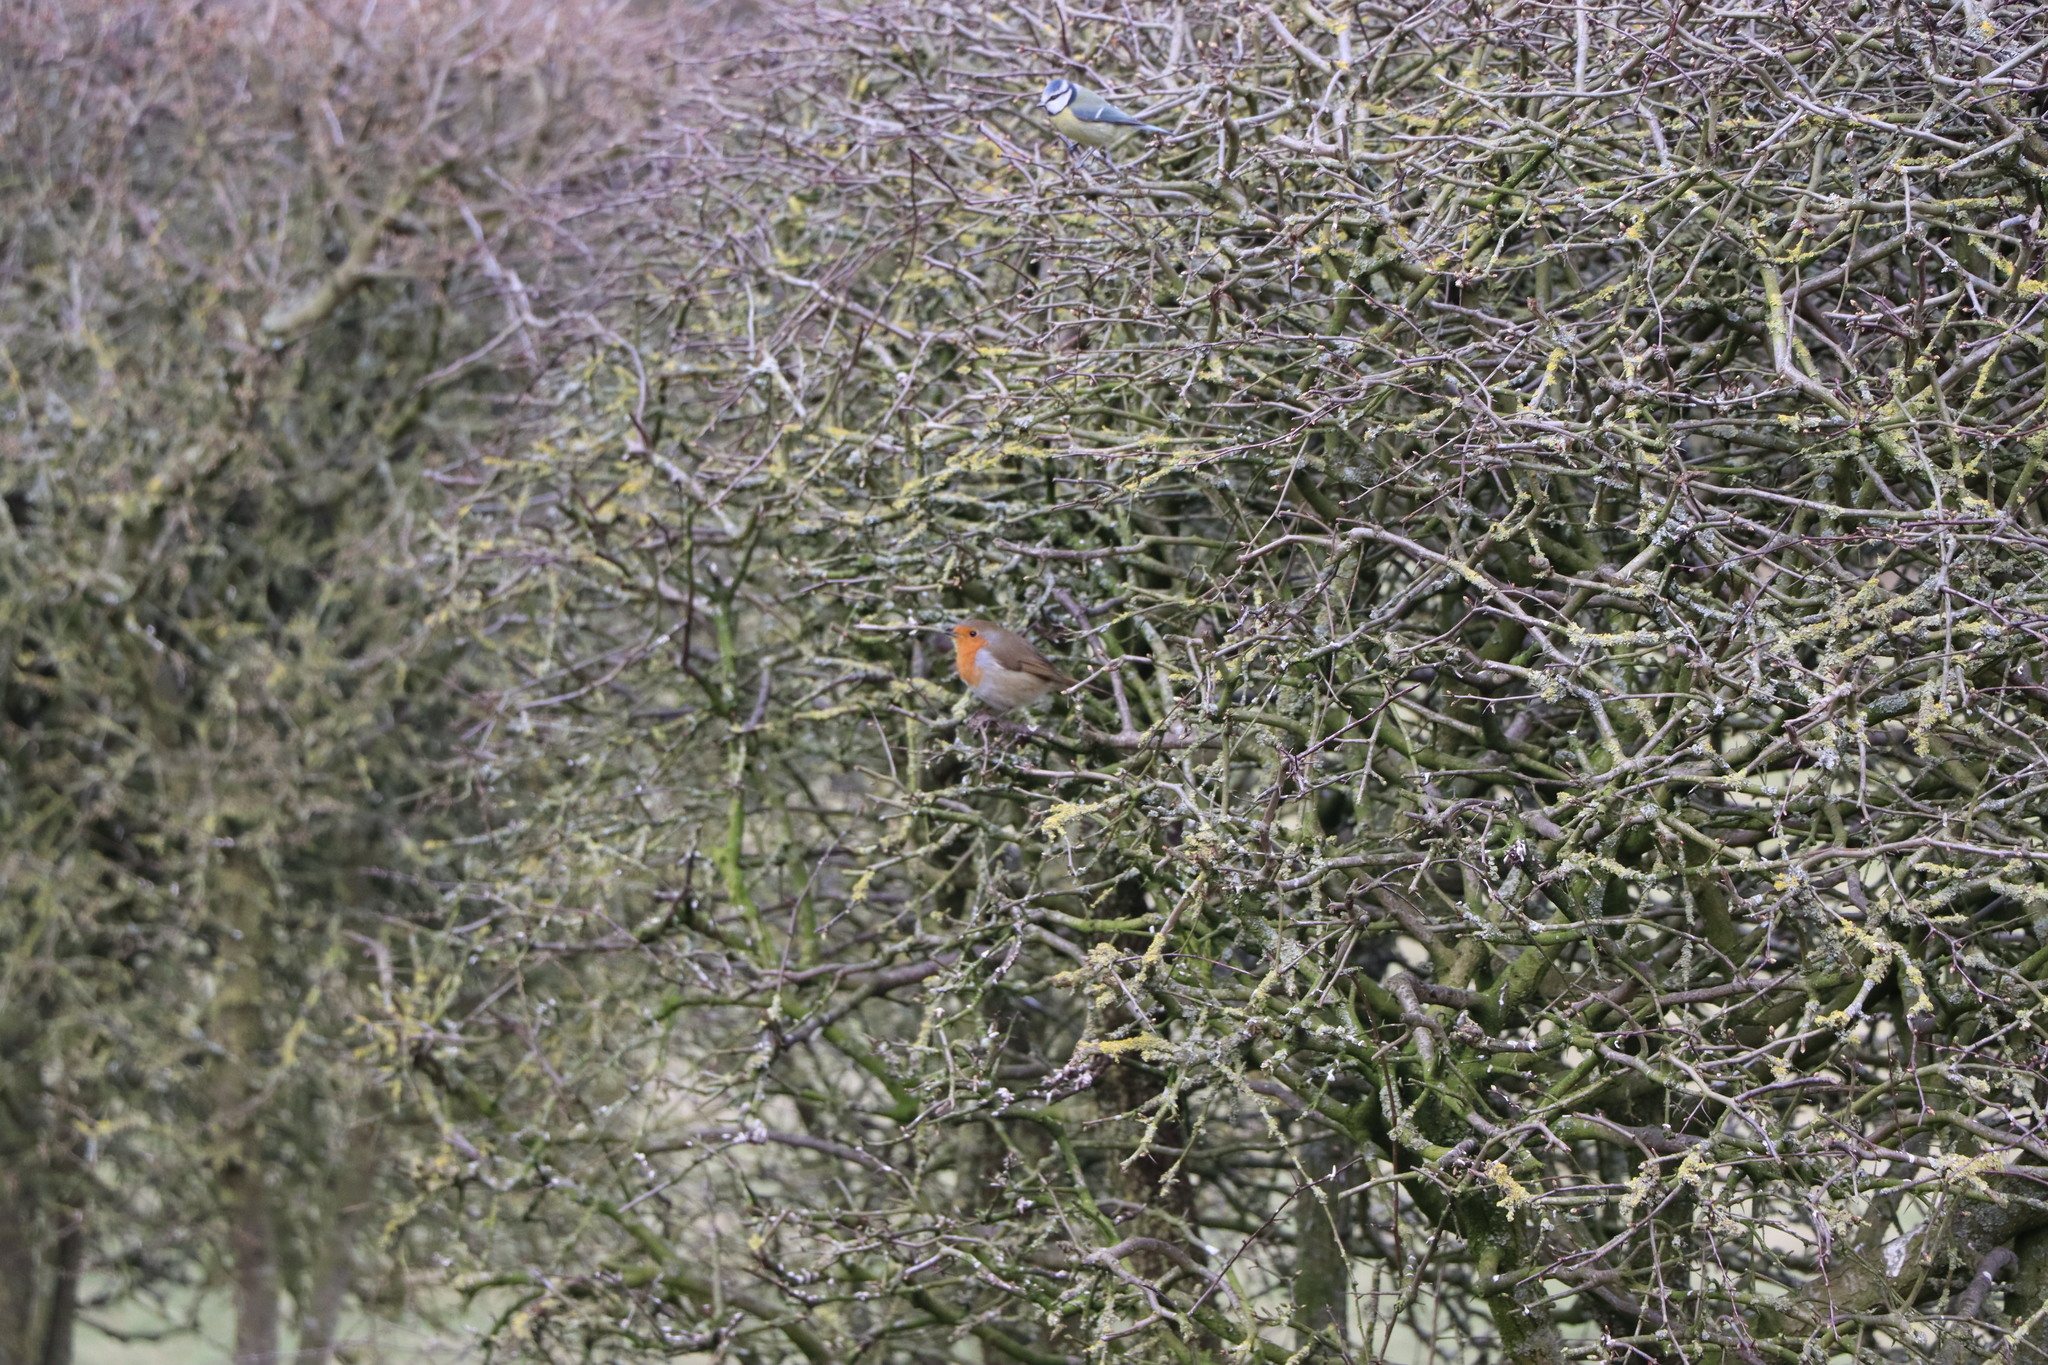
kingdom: Animalia
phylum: Chordata
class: Aves
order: Passeriformes
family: Muscicapidae
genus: Erithacus
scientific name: Erithacus rubecula
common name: European robin
